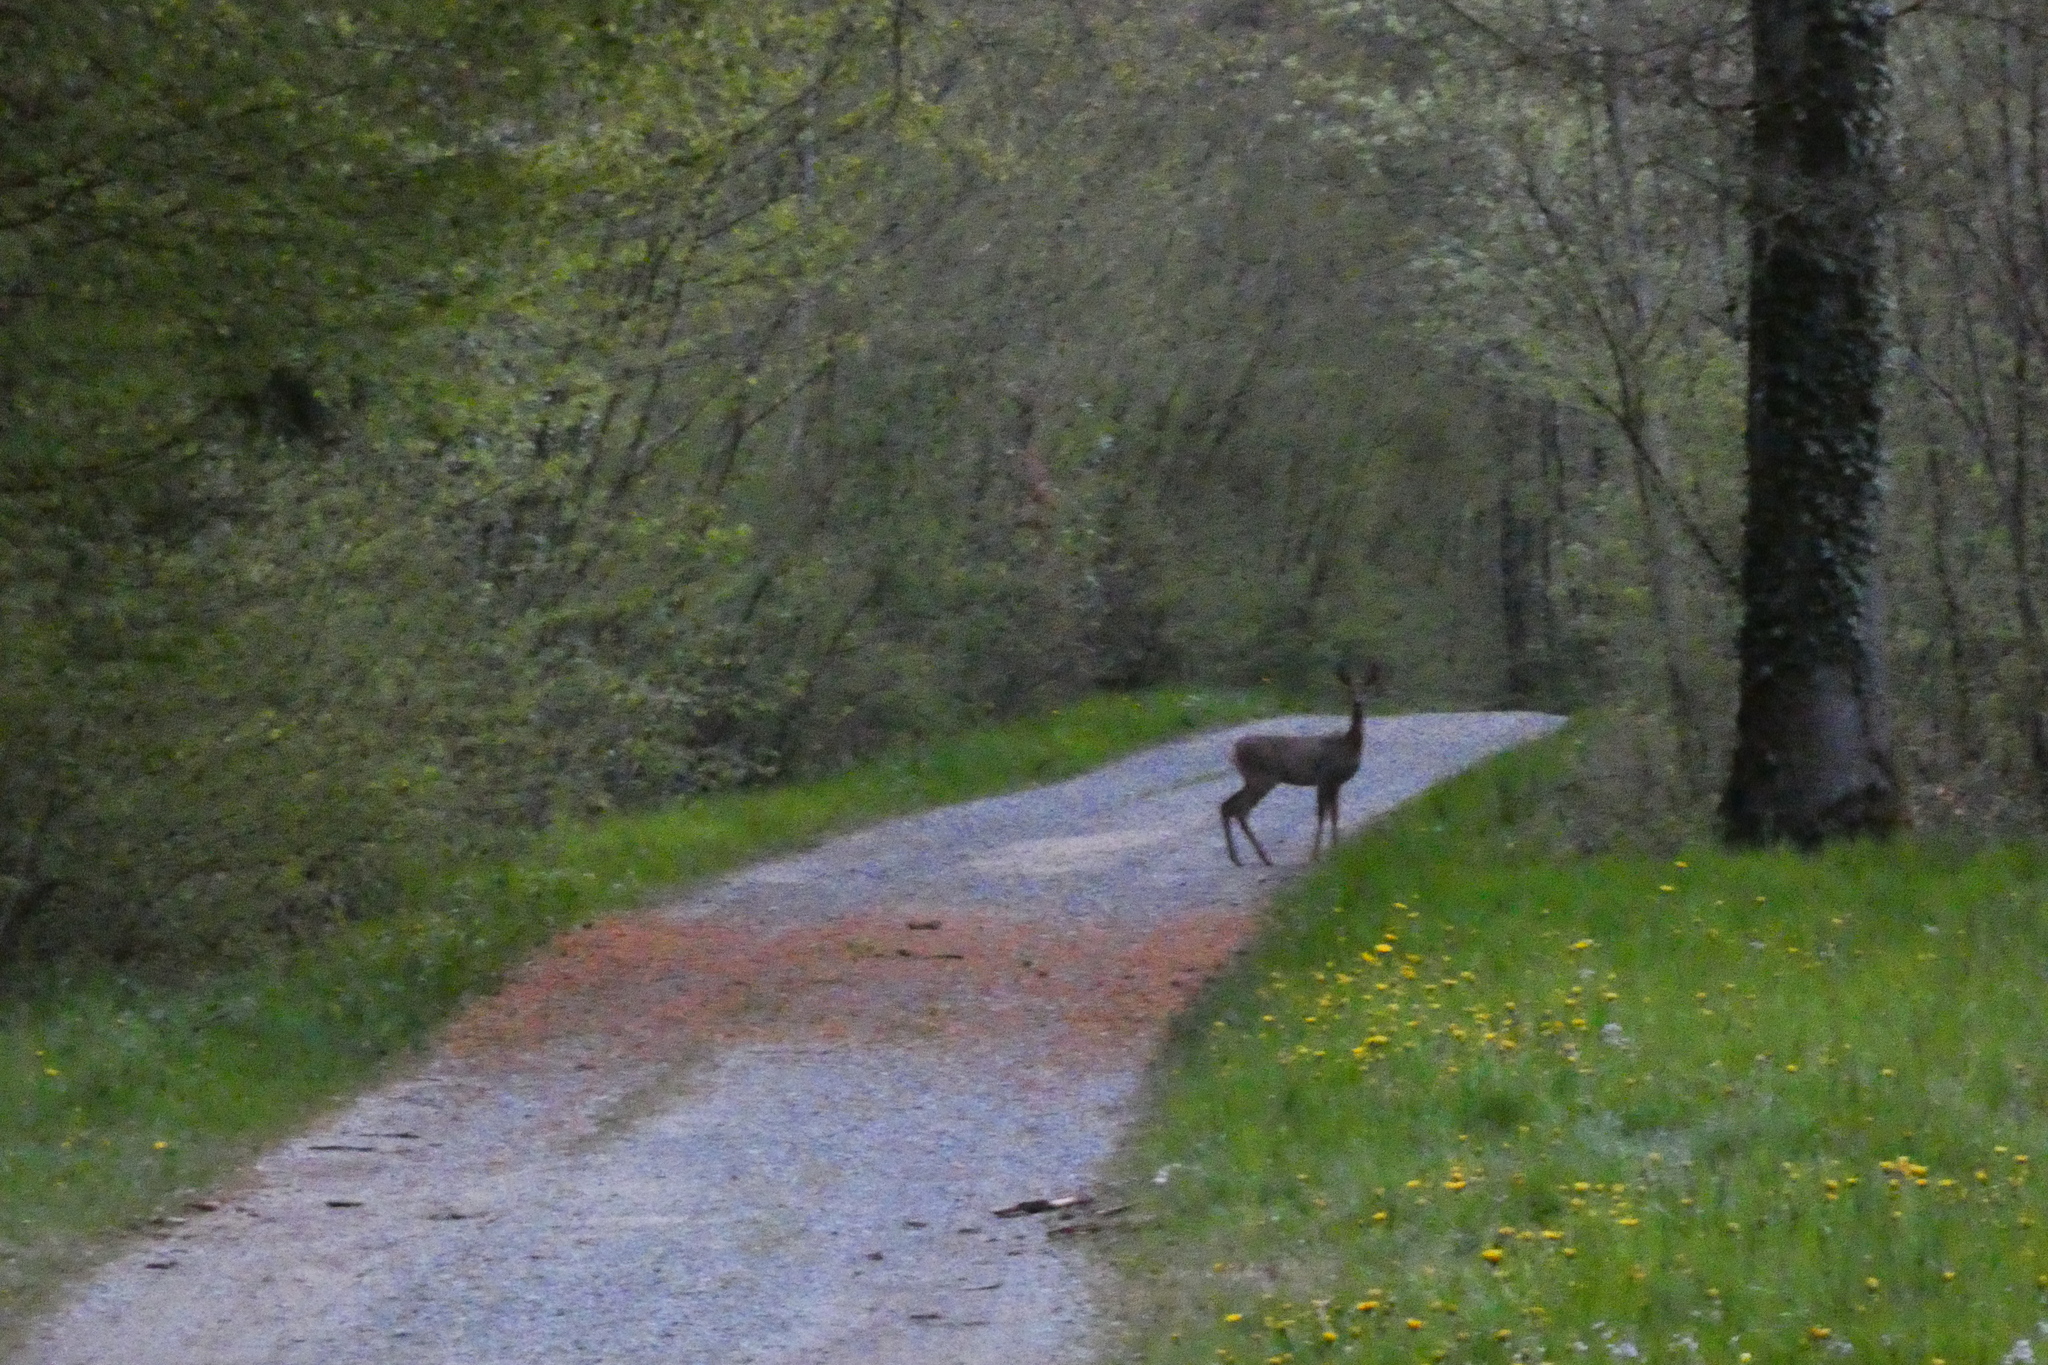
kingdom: Animalia
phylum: Chordata
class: Mammalia
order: Artiodactyla
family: Cervidae
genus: Capreolus
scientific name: Capreolus capreolus
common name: Western roe deer
